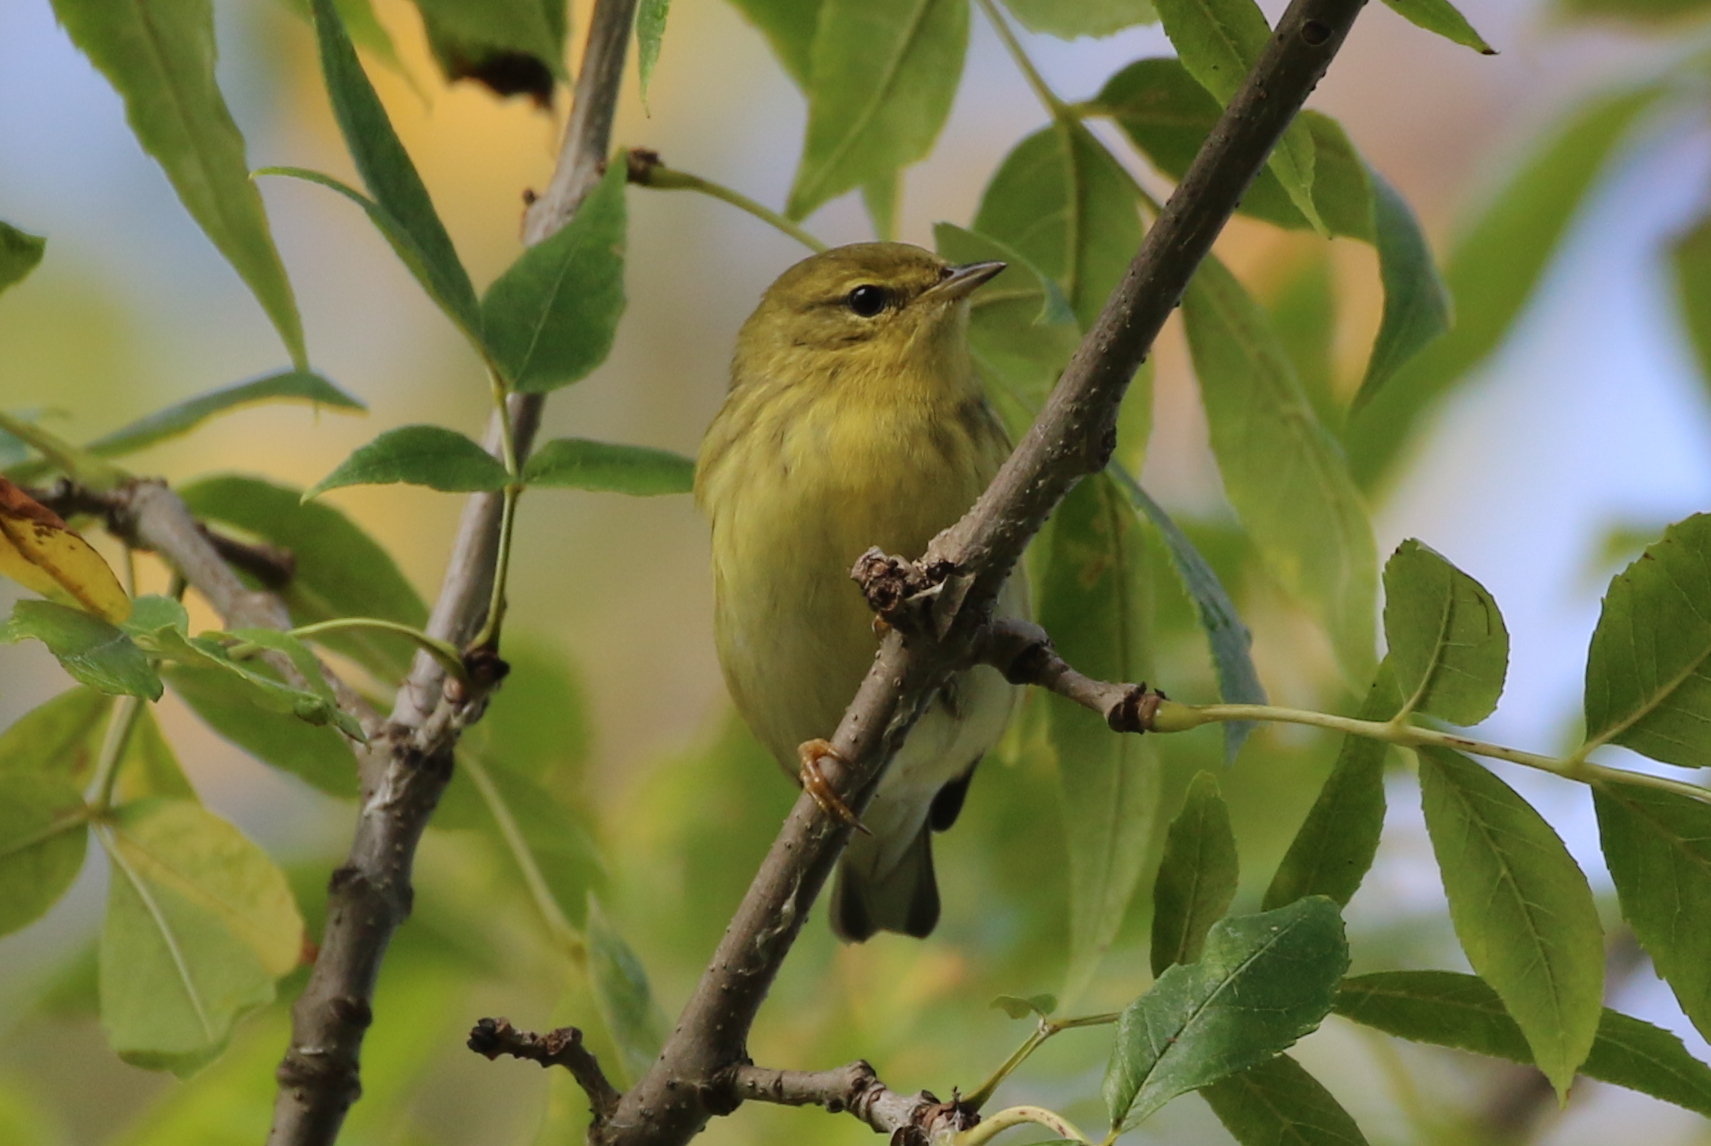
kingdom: Animalia
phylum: Chordata
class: Aves
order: Passeriformes
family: Parulidae
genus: Setophaga
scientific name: Setophaga striata
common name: Blackpoll warbler
